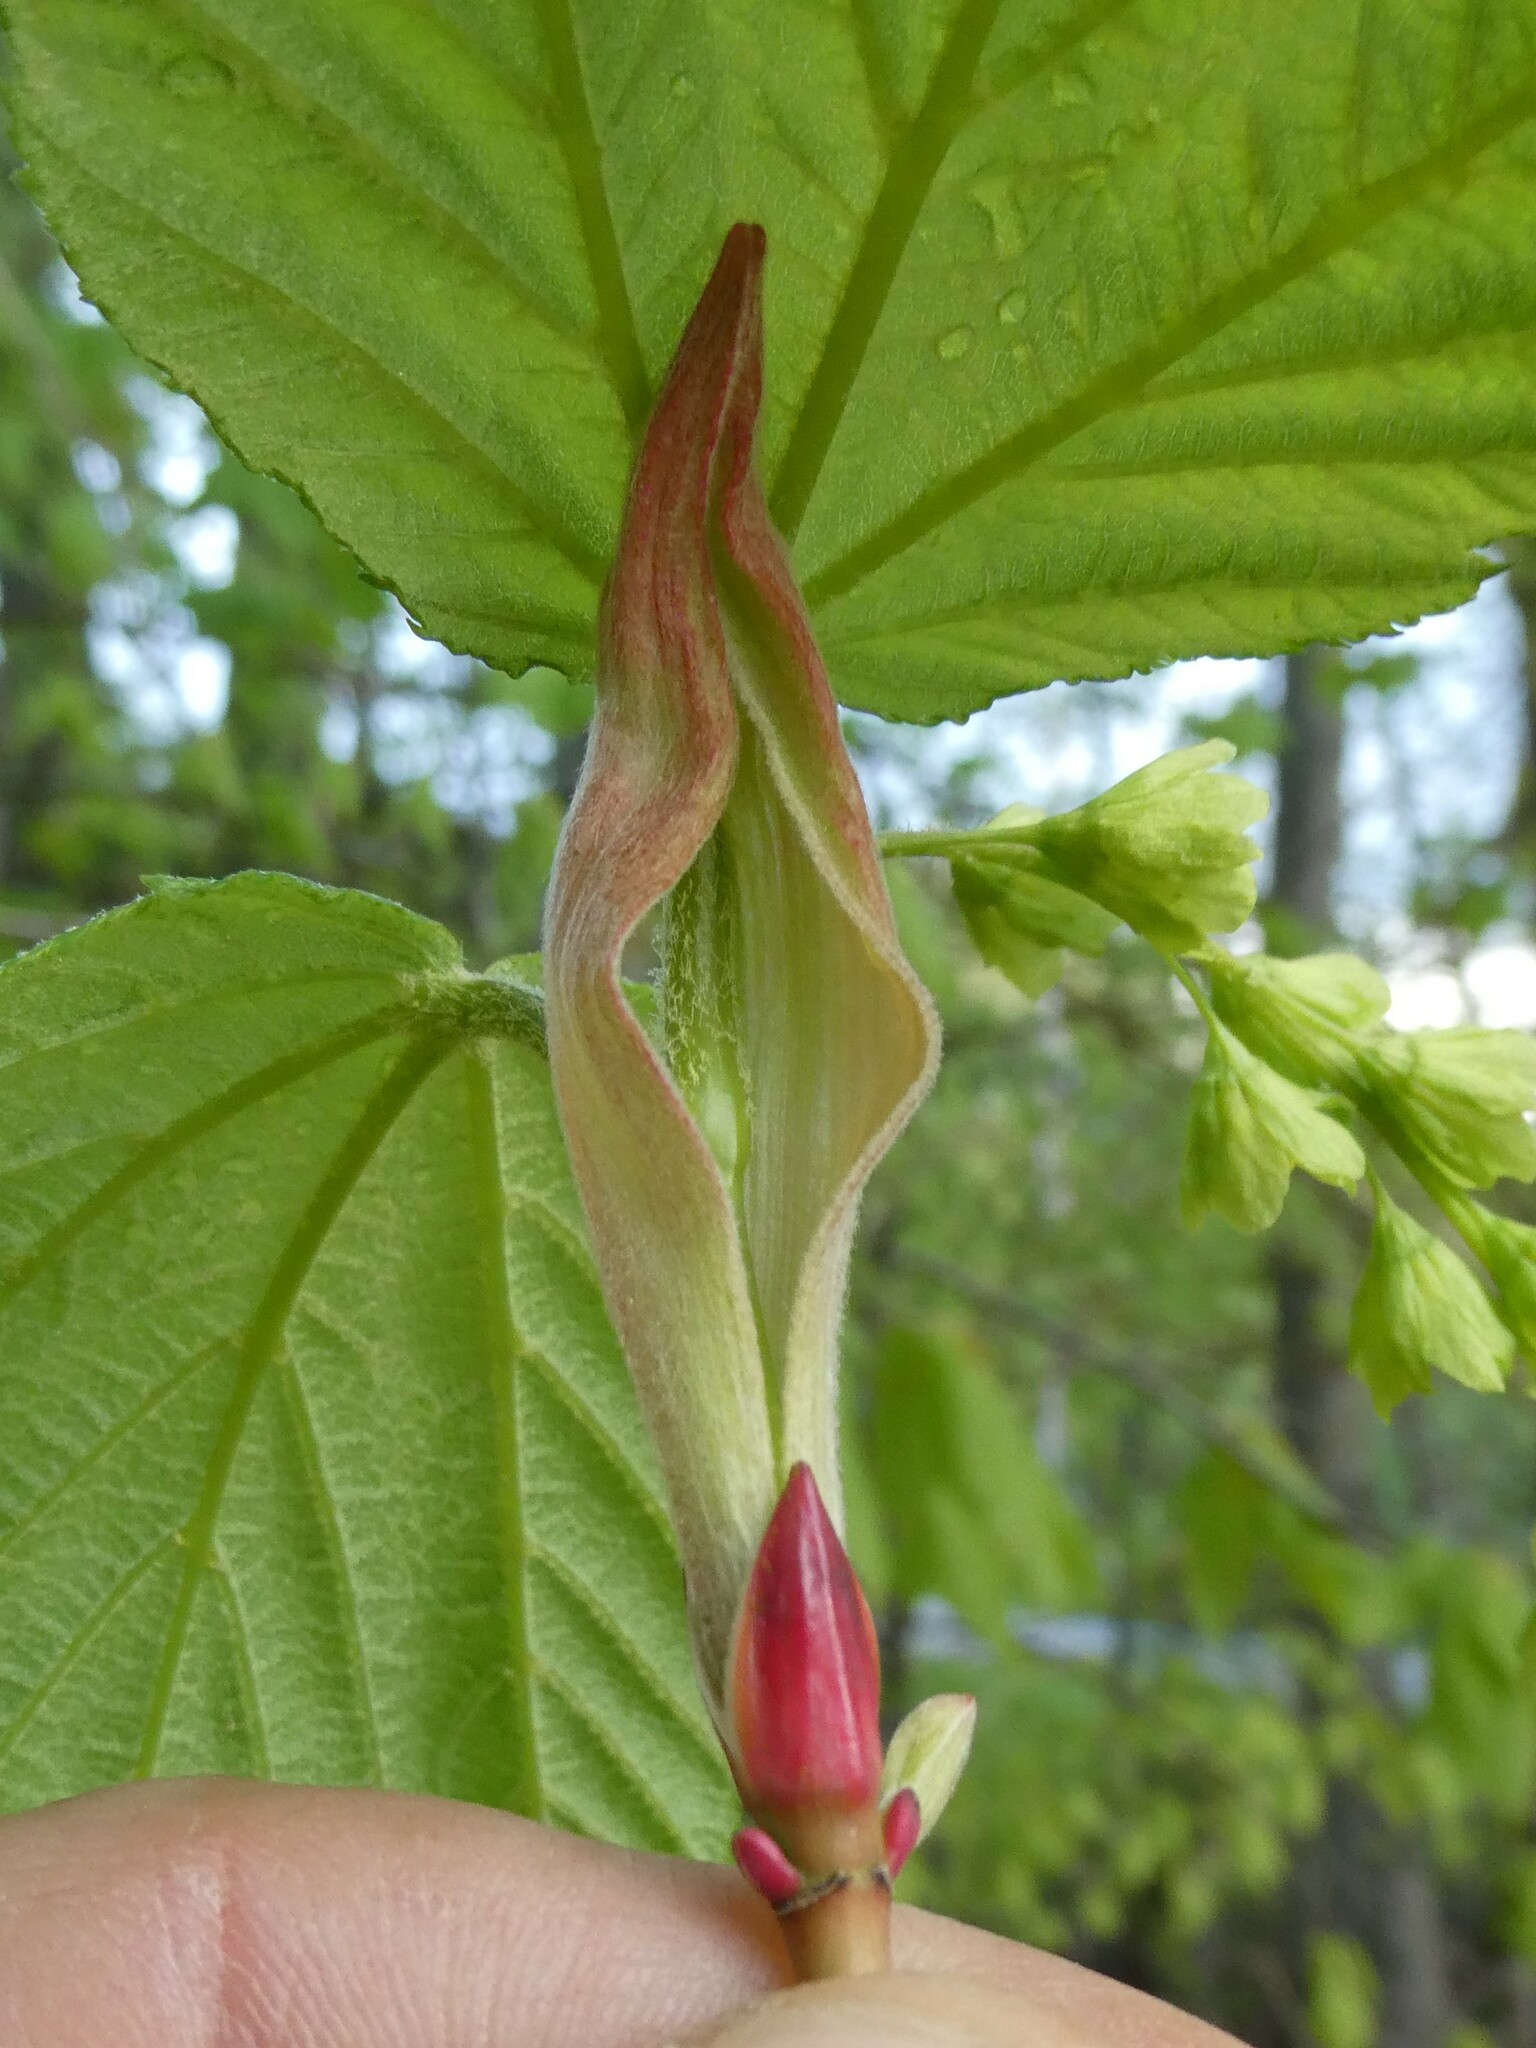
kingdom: Plantae
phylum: Tracheophyta
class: Magnoliopsida
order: Sapindales
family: Sapindaceae
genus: Acer
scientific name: Acer pensylvanicum
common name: Moosewood
